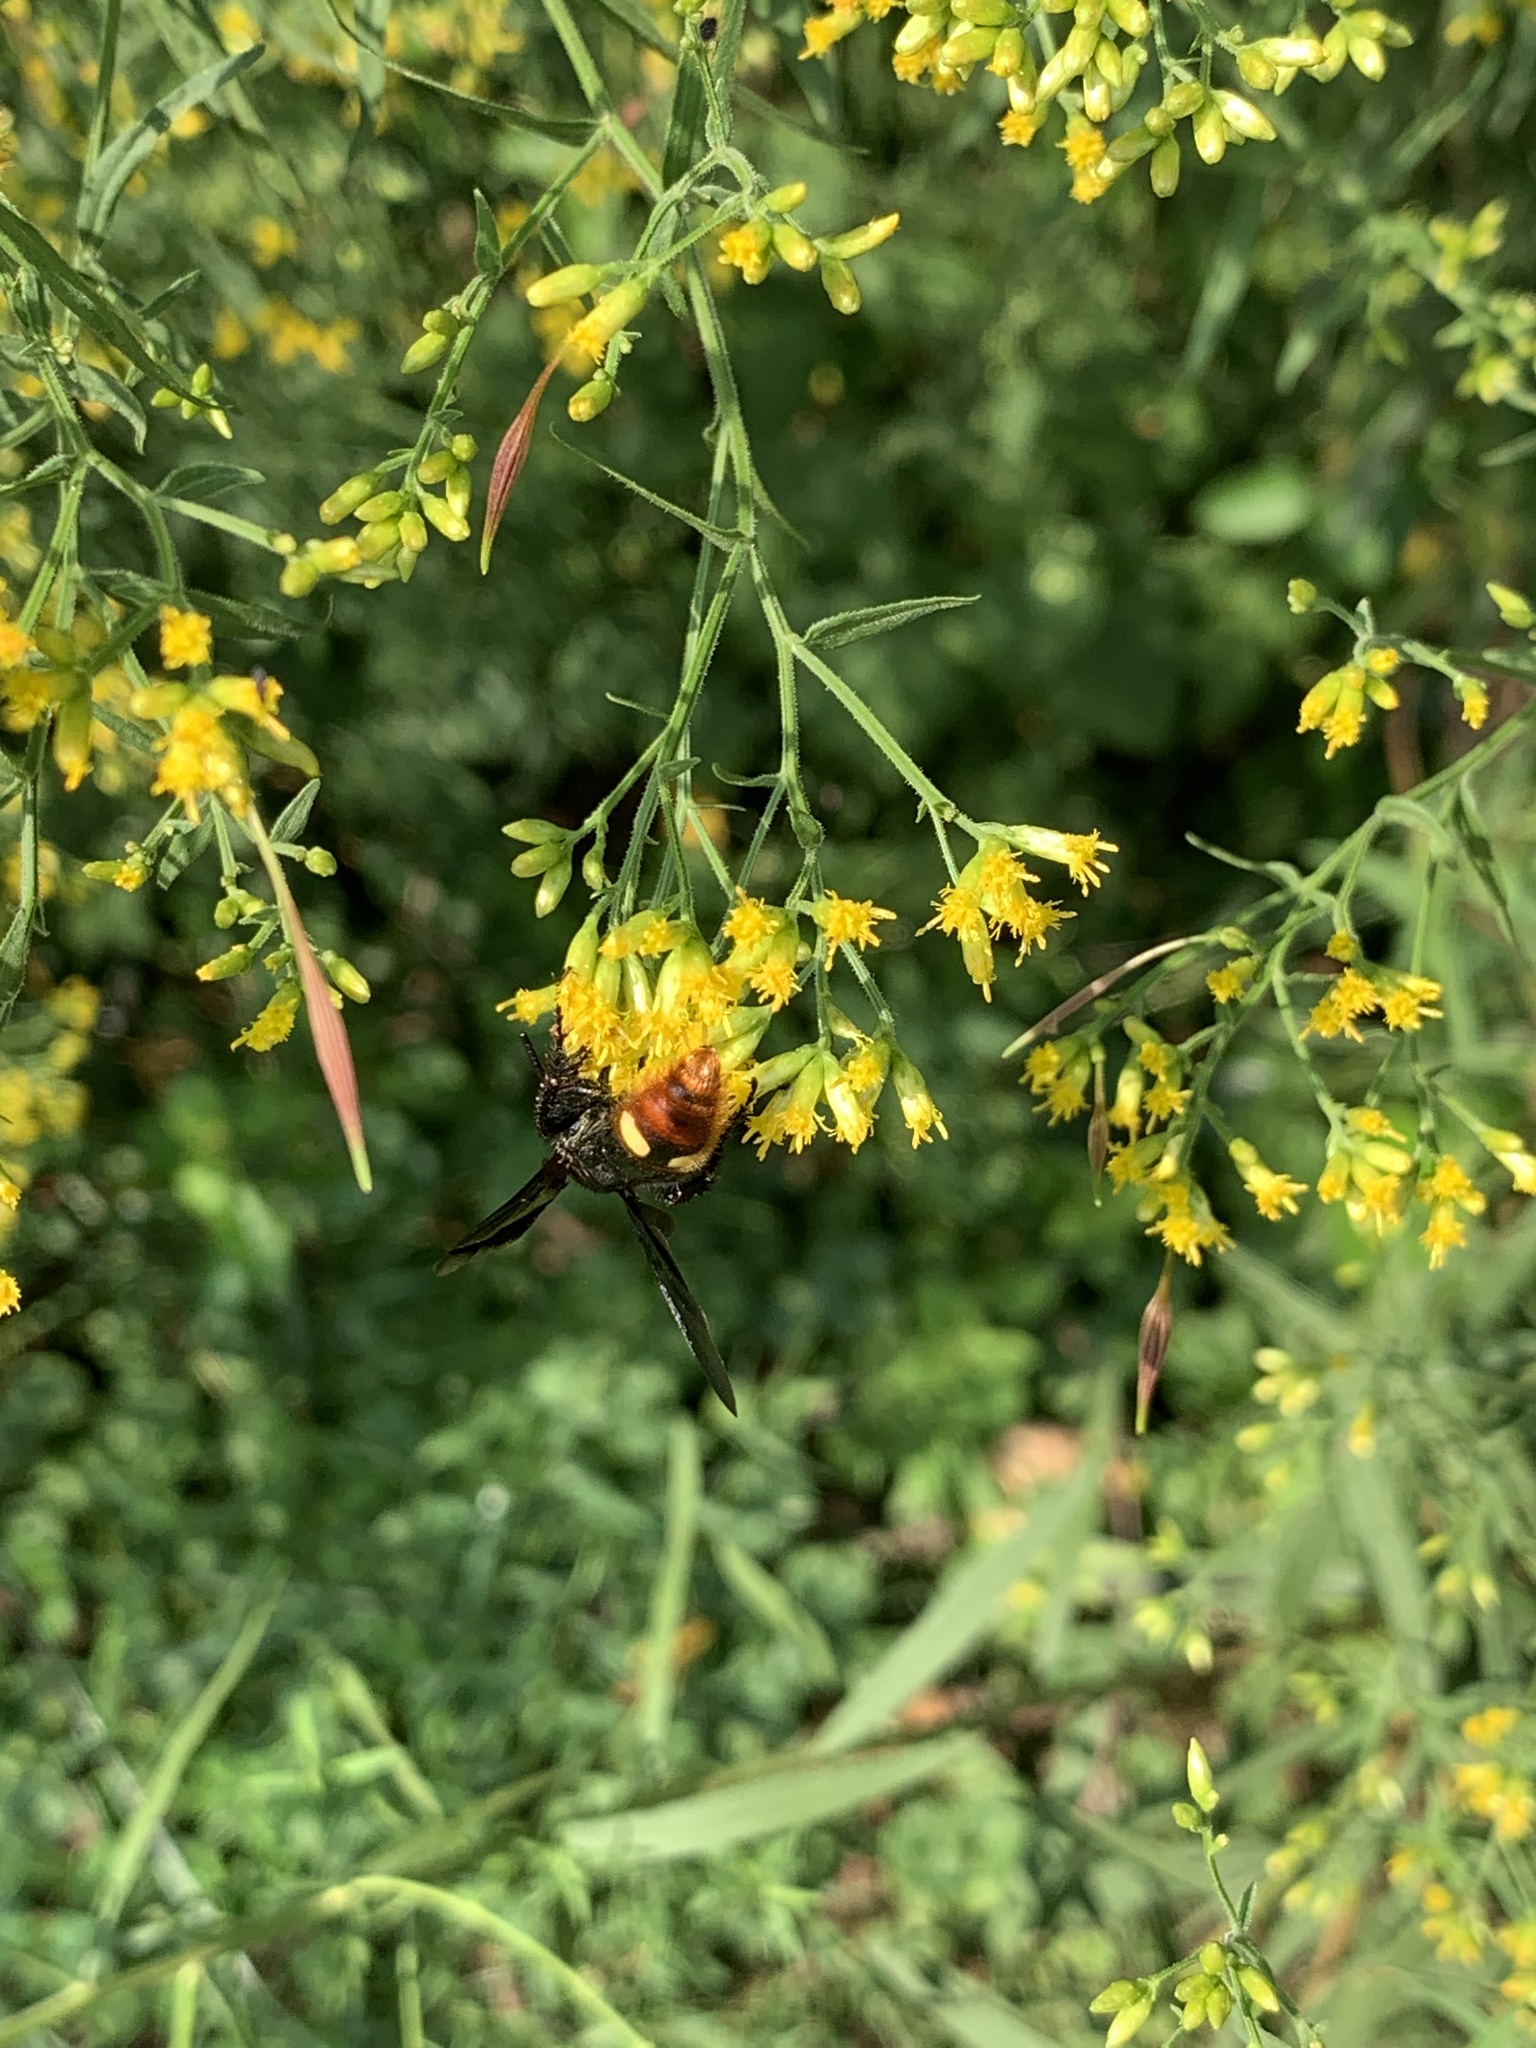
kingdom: Animalia
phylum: Arthropoda
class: Insecta
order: Hymenoptera
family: Scoliidae
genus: Scolia
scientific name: Scolia dubia
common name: Blue-winged scoliid wasp
